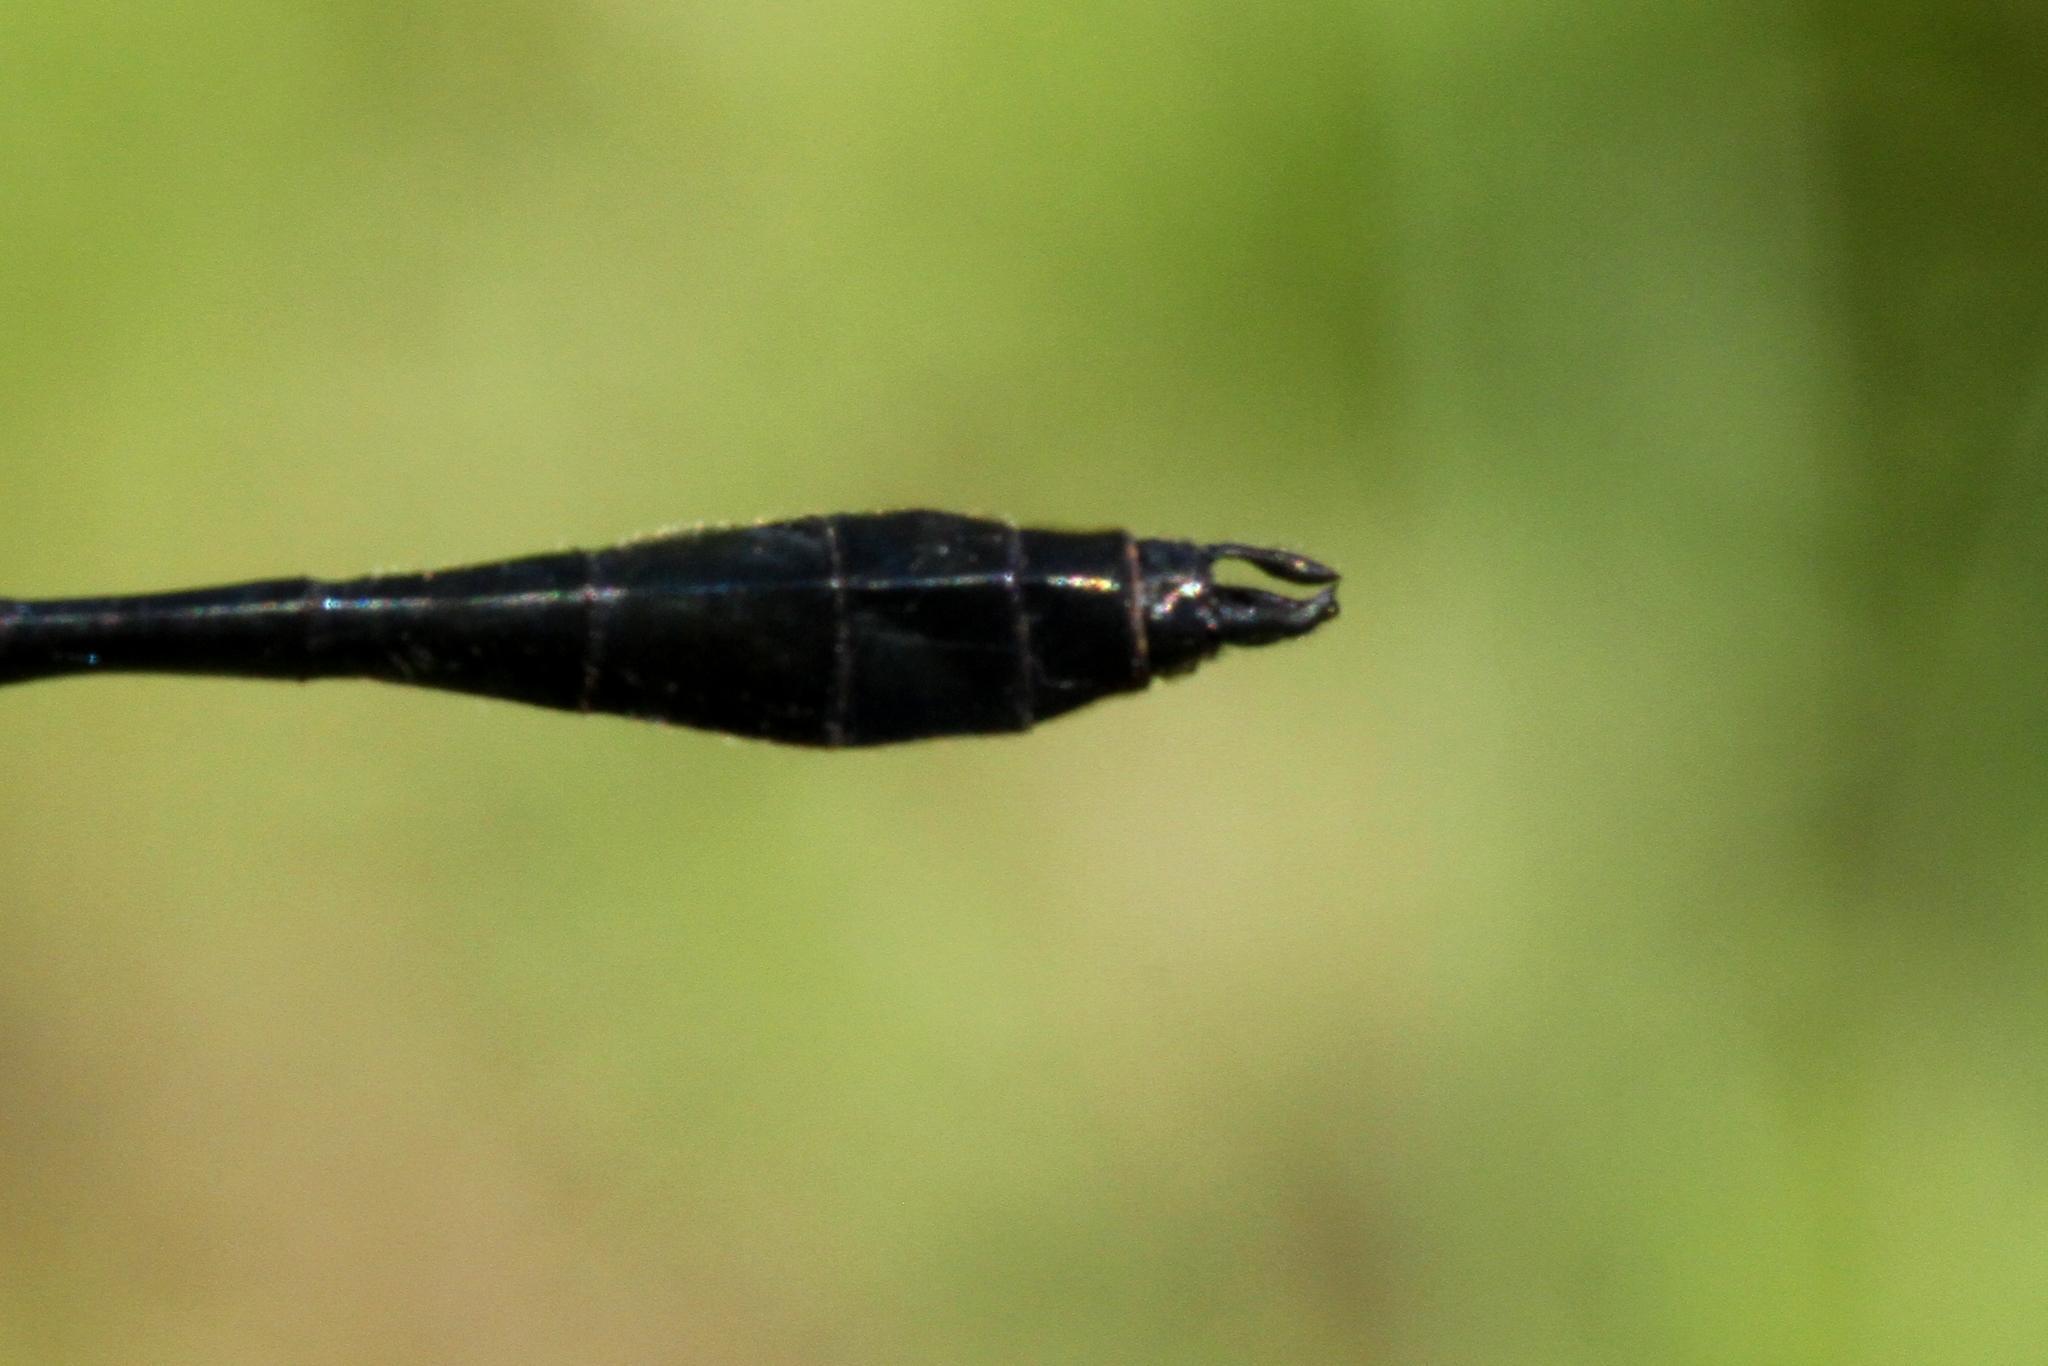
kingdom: Animalia
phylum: Arthropoda
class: Insecta
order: Odonata
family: Corduliidae
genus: Dorocordulia
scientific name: Dorocordulia libera
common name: Racket-tailed emerald
